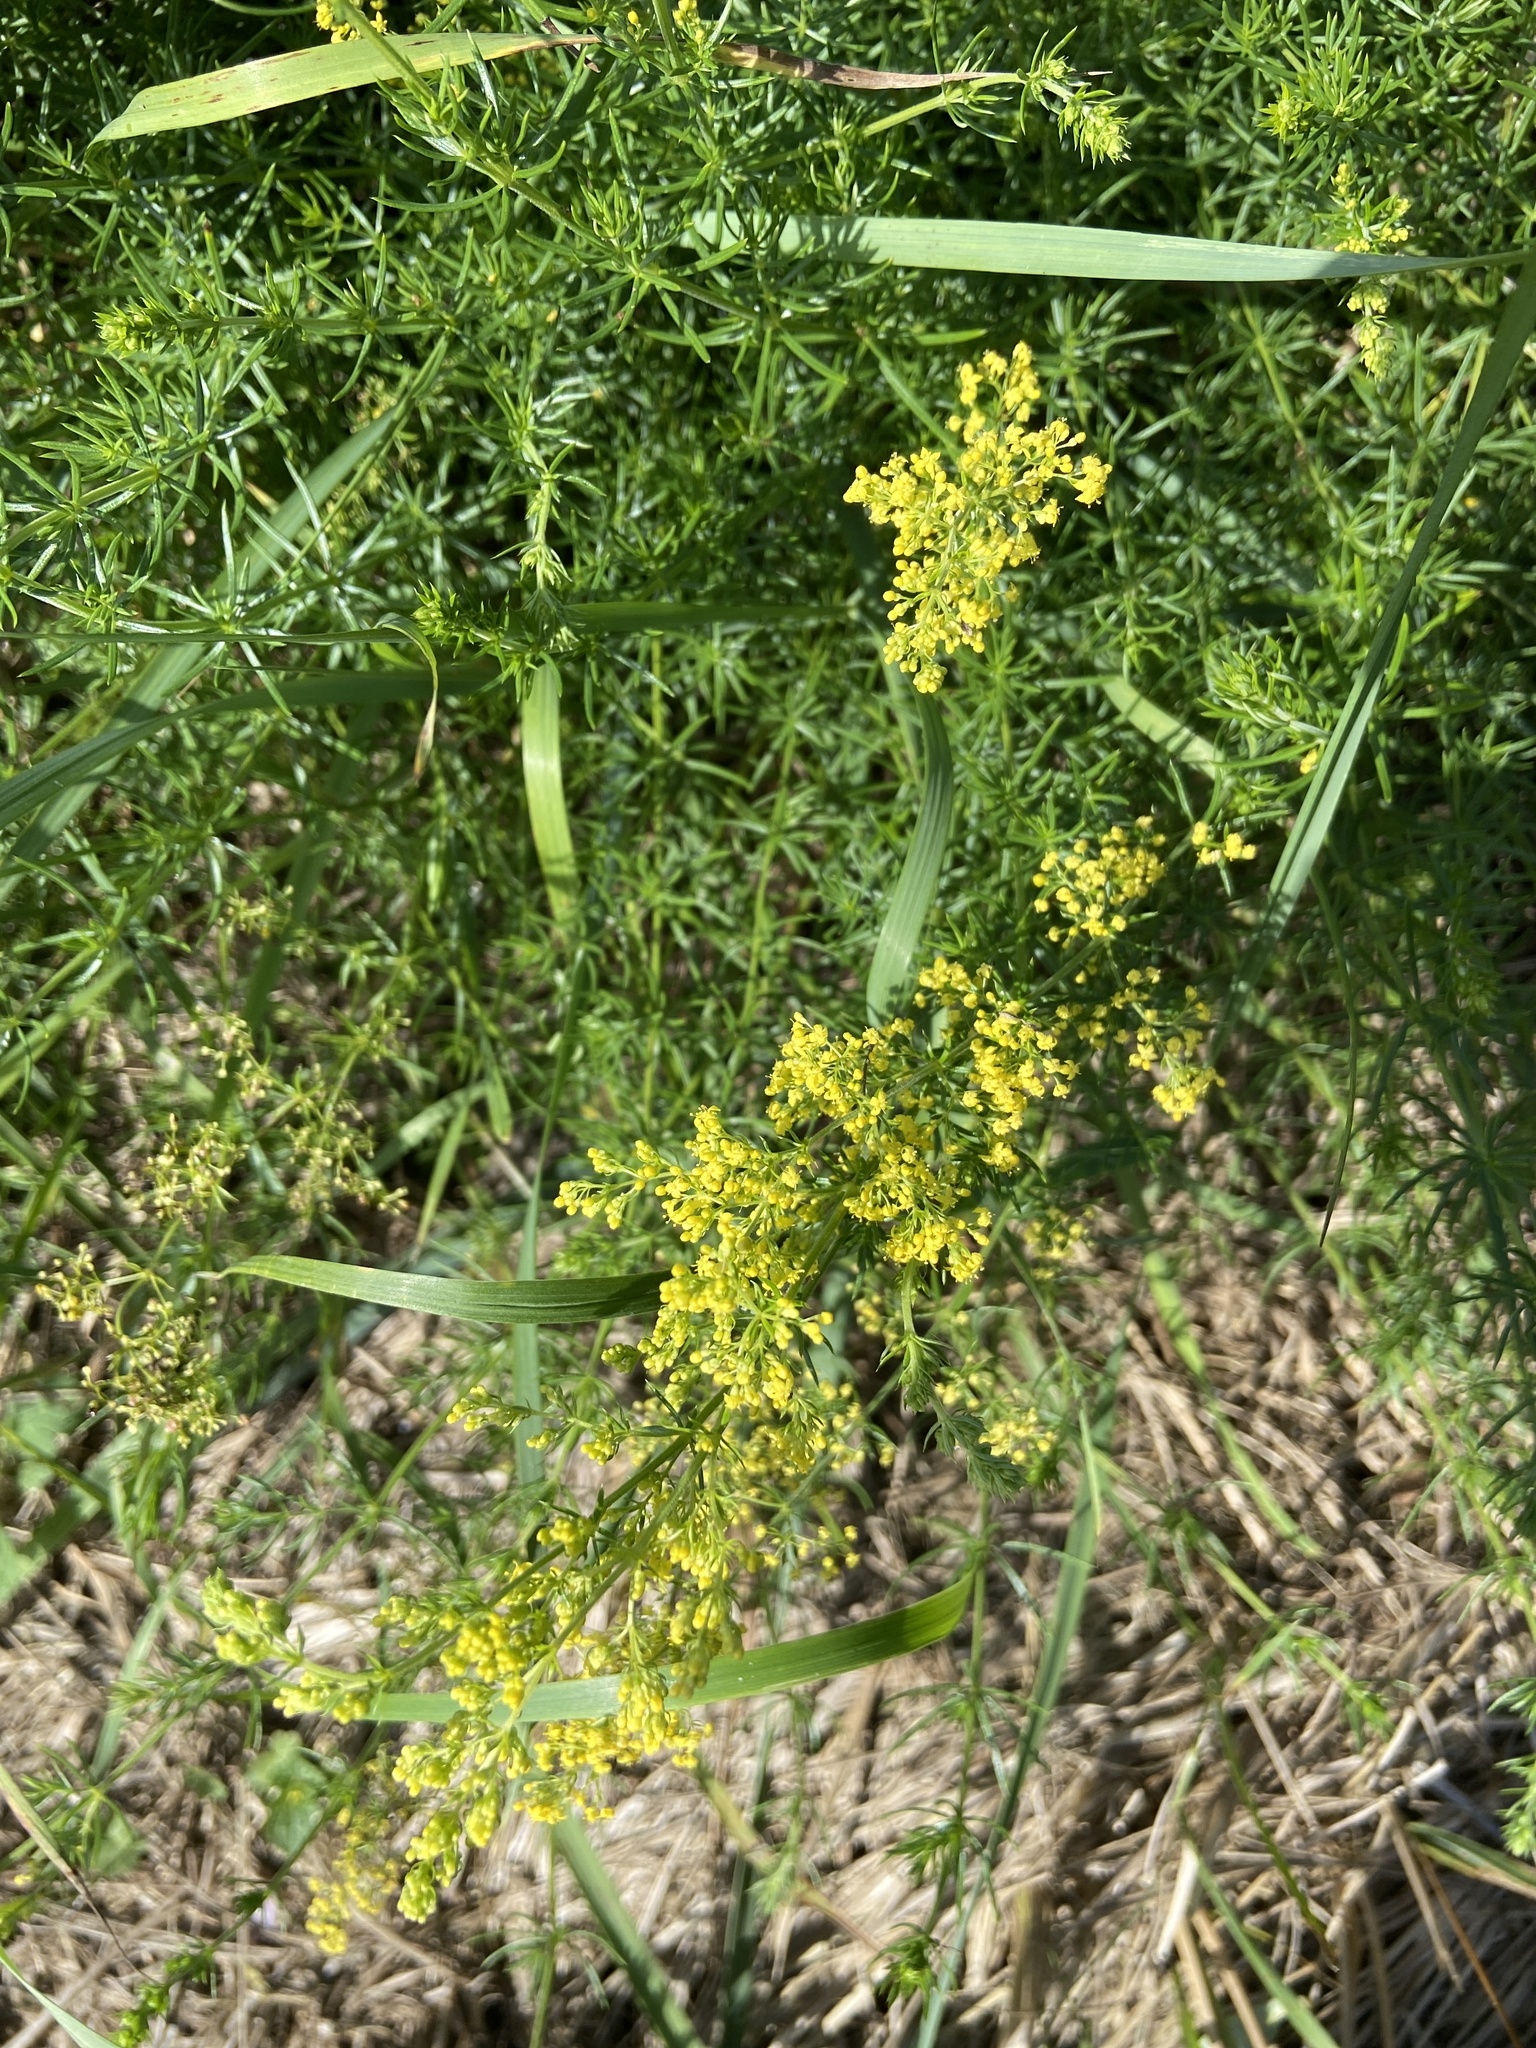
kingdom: Plantae
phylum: Tracheophyta
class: Magnoliopsida
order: Gentianales
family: Rubiaceae
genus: Galium
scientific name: Galium verum
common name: Lady's bedstraw
